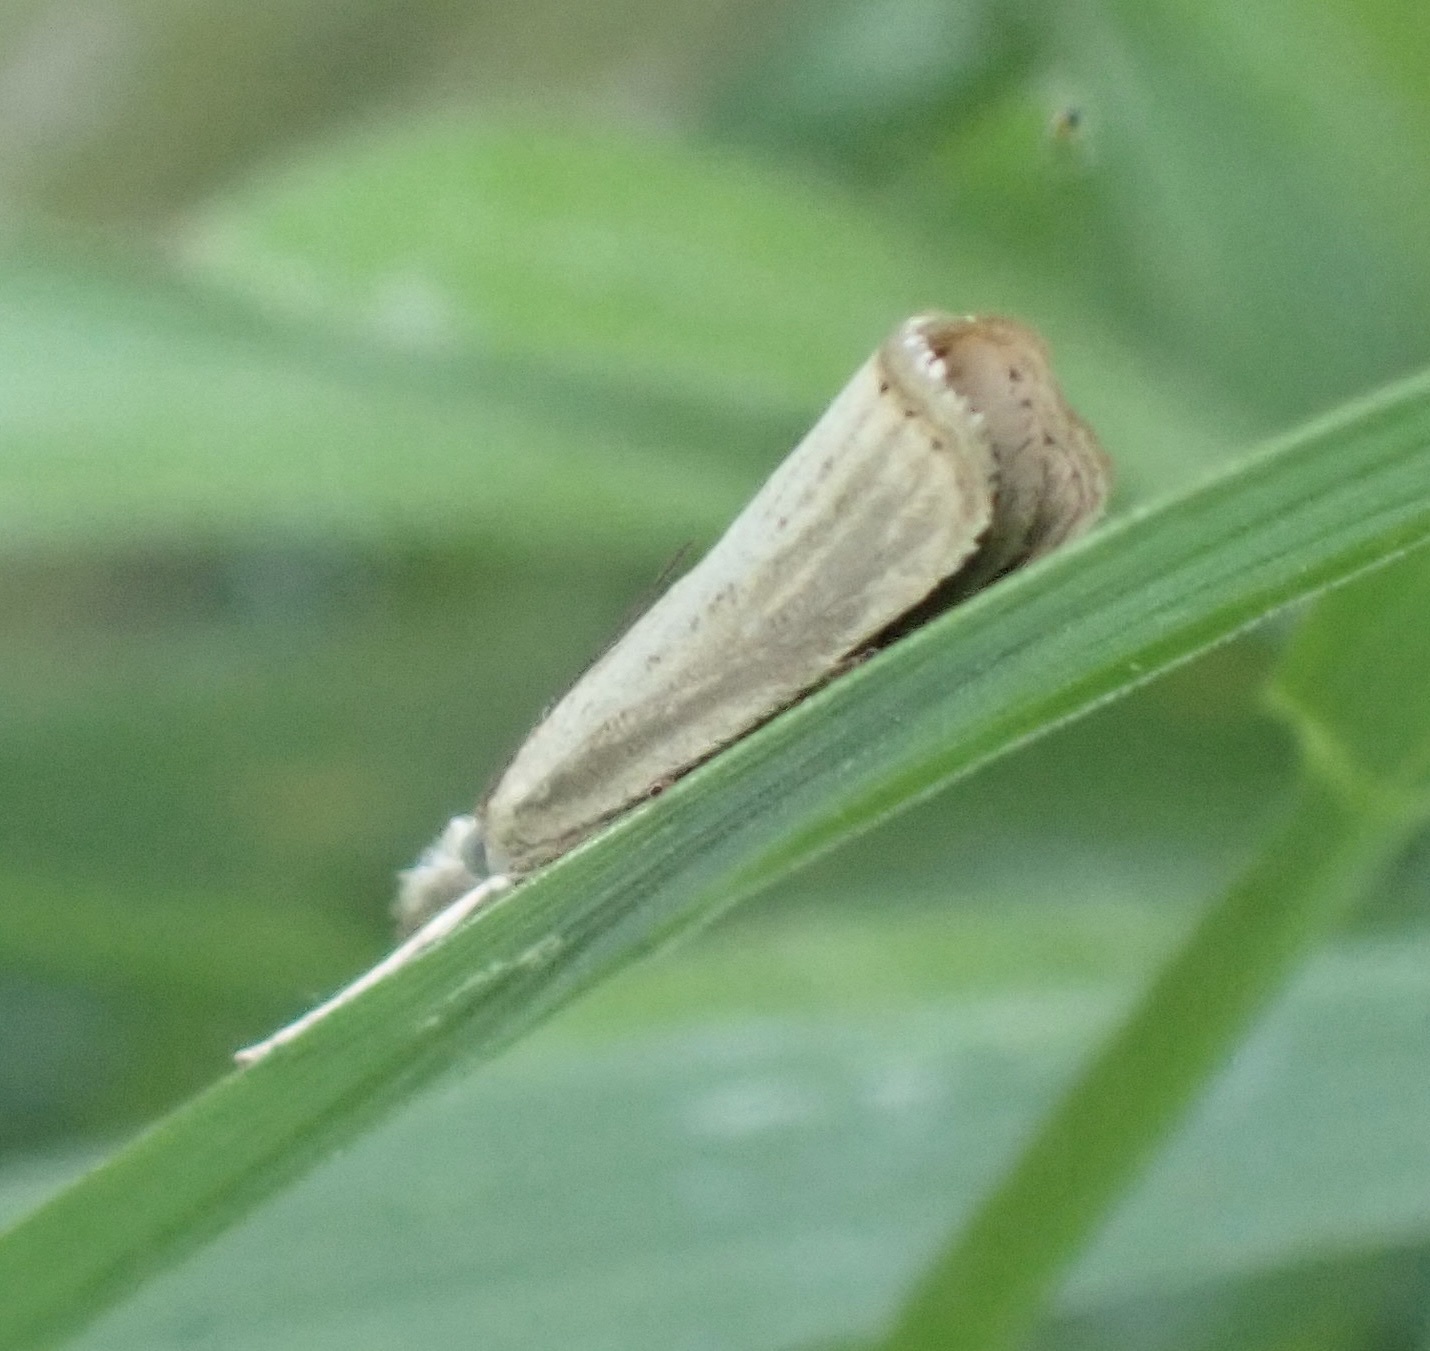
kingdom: Animalia
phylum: Arthropoda
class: Insecta
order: Lepidoptera
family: Crambidae
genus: Agriphila
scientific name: Agriphila straminella
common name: Straw grass-veneer
